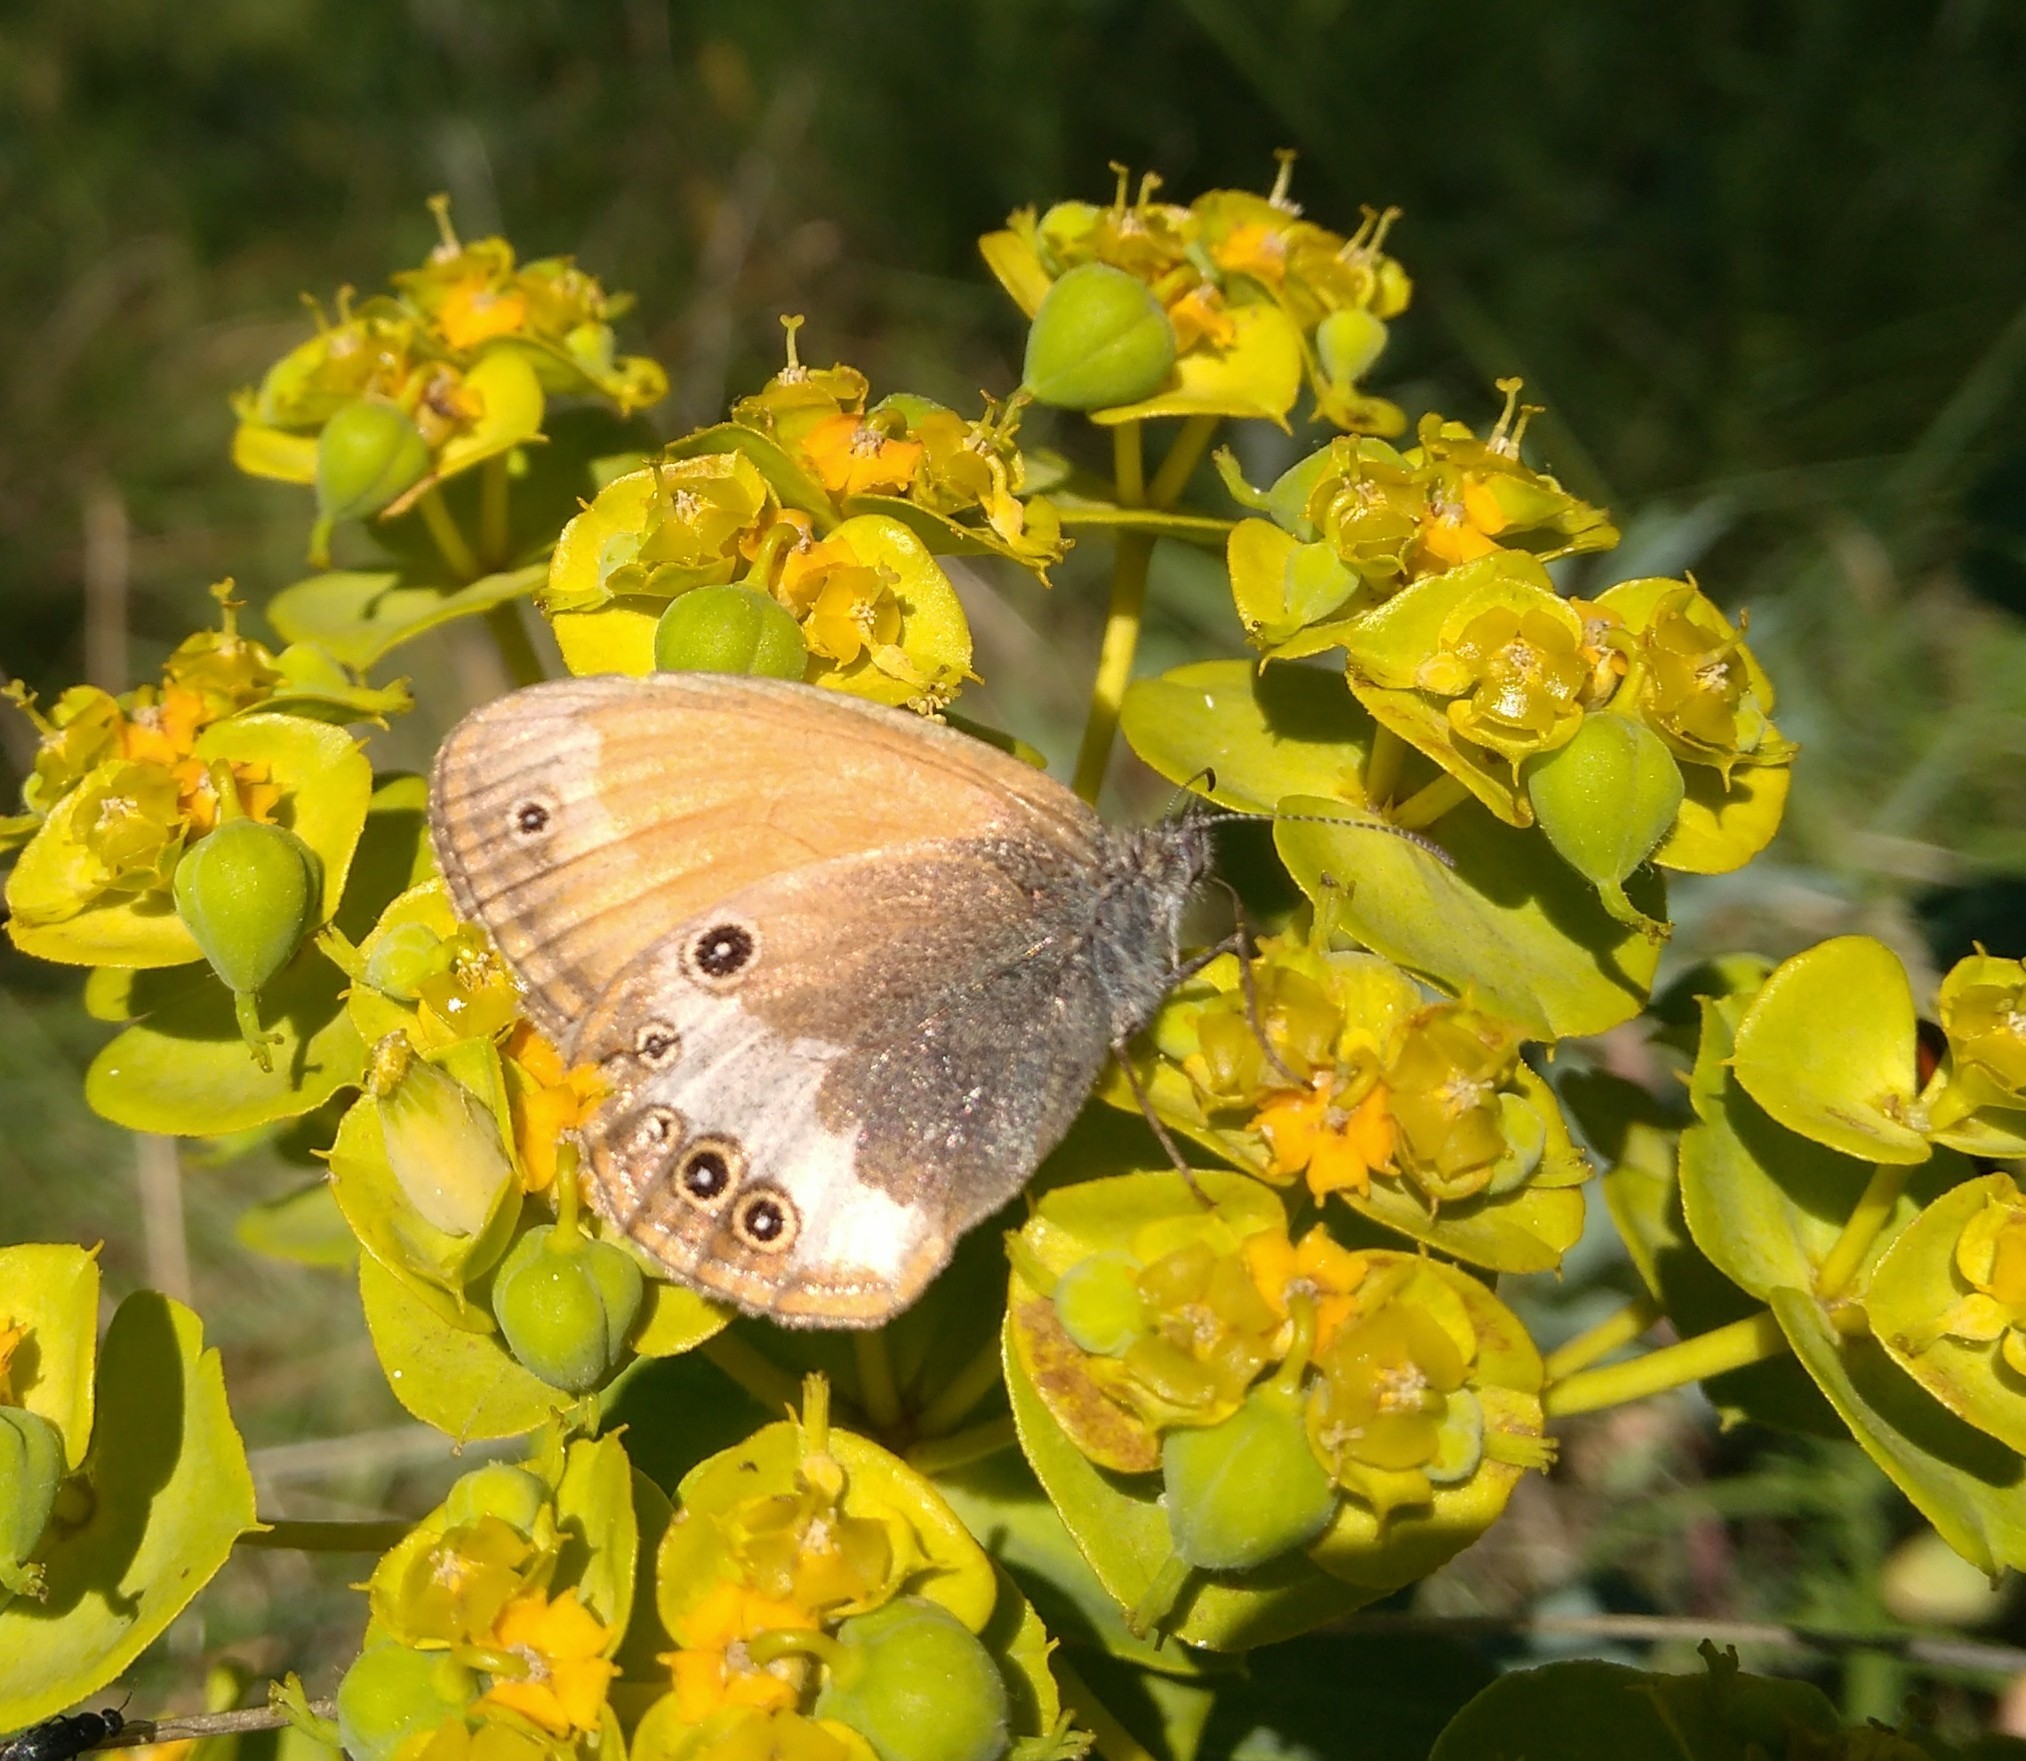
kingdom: Animalia
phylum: Arthropoda
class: Insecta
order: Lepidoptera
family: Nymphalidae
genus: Coenonympha
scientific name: Coenonympha arcania
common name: Pearly heath
